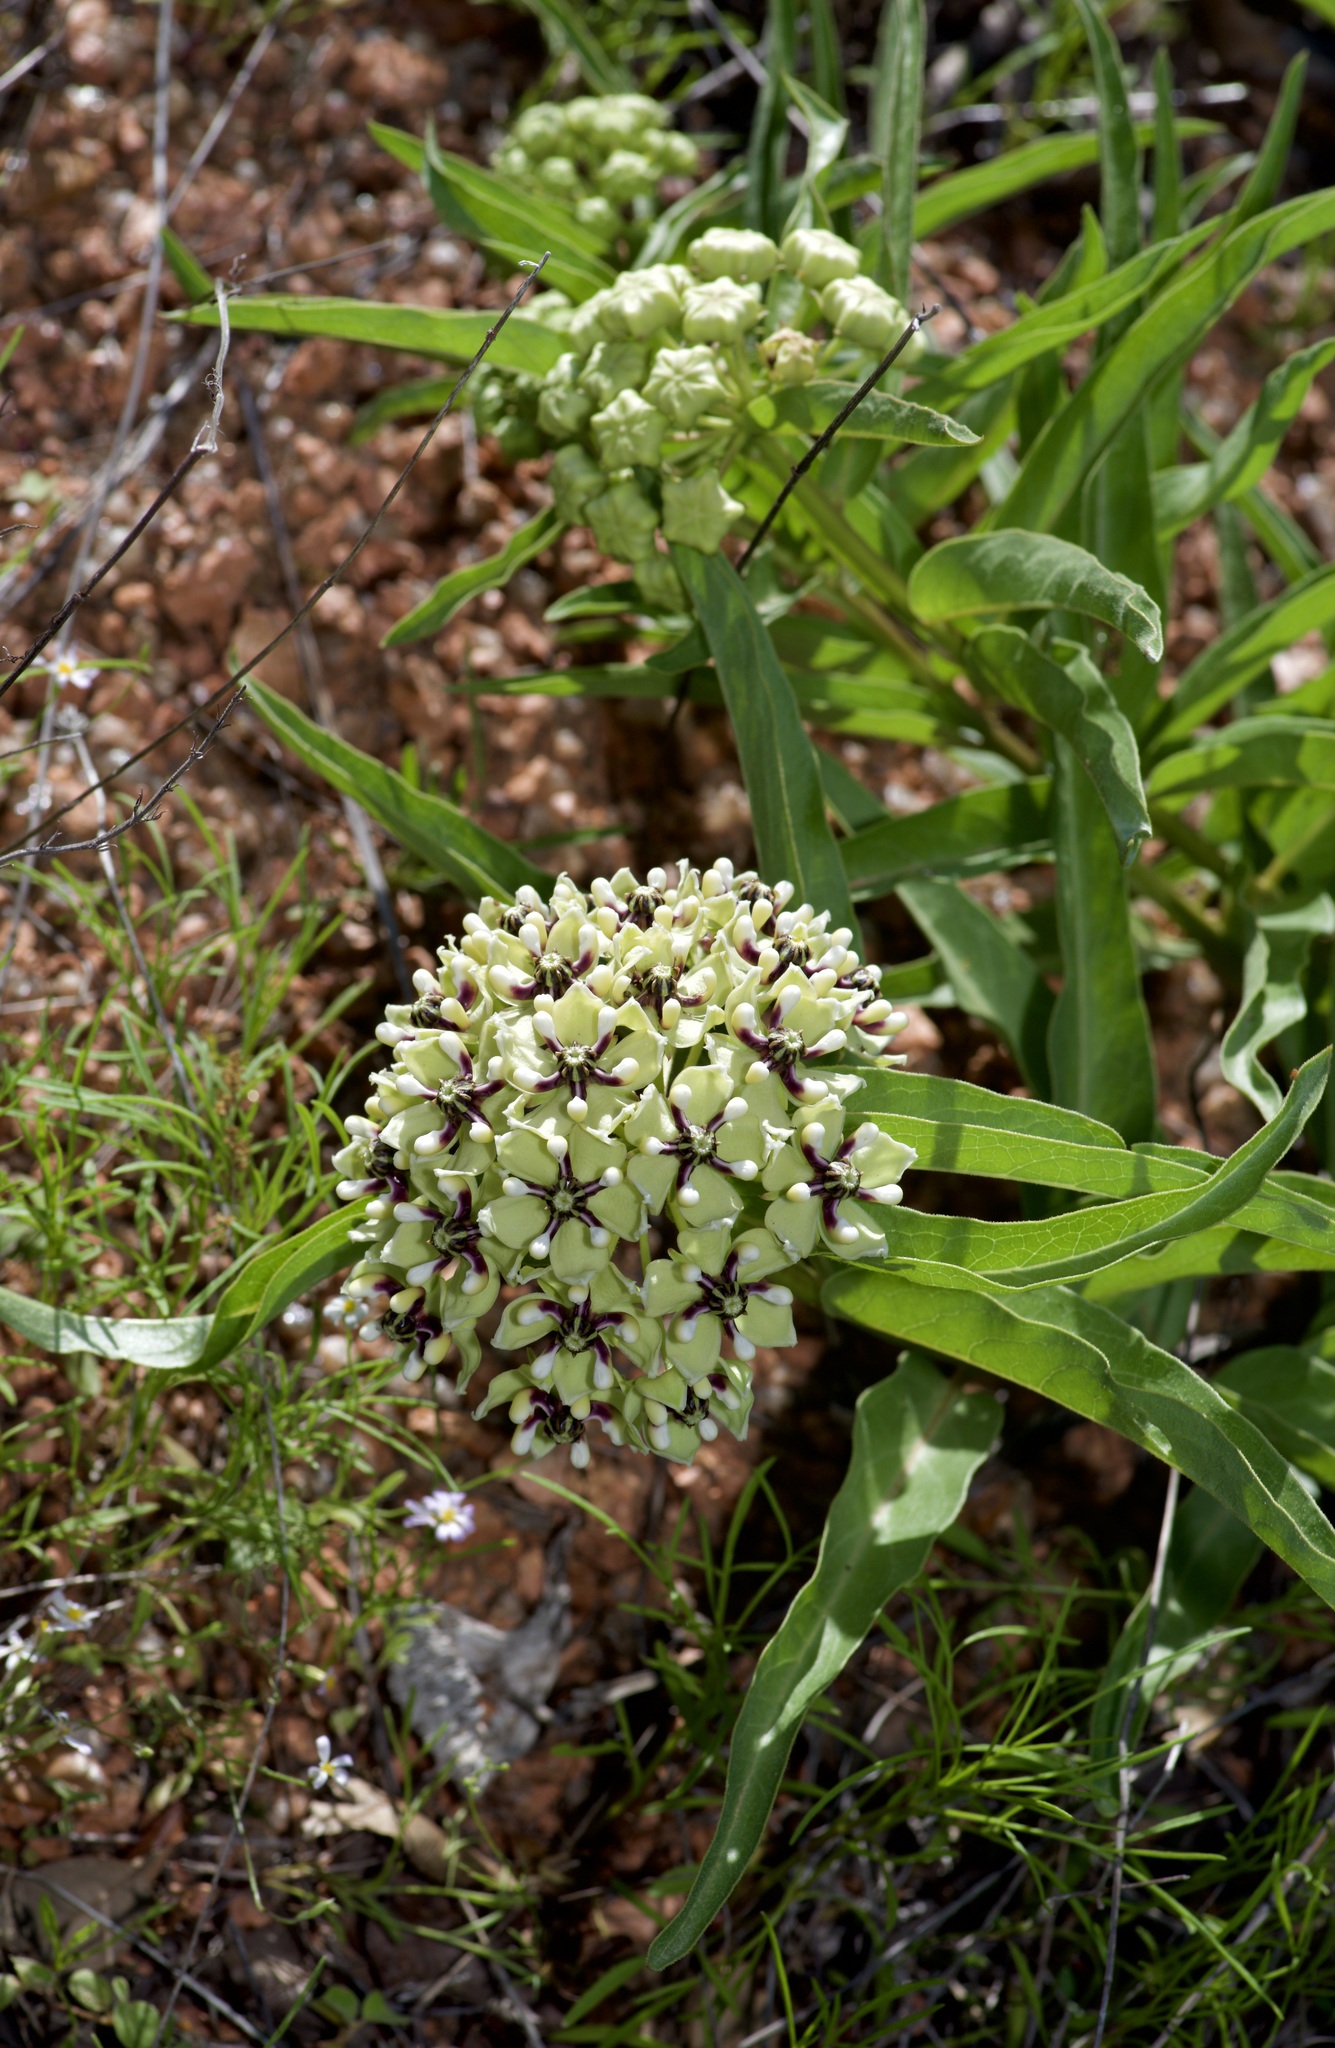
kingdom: Plantae
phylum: Tracheophyta
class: Magnoliopsida
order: Gentianales
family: Apocynaceae
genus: Asclepias
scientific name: Asclepias asperula
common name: Antelope horns
